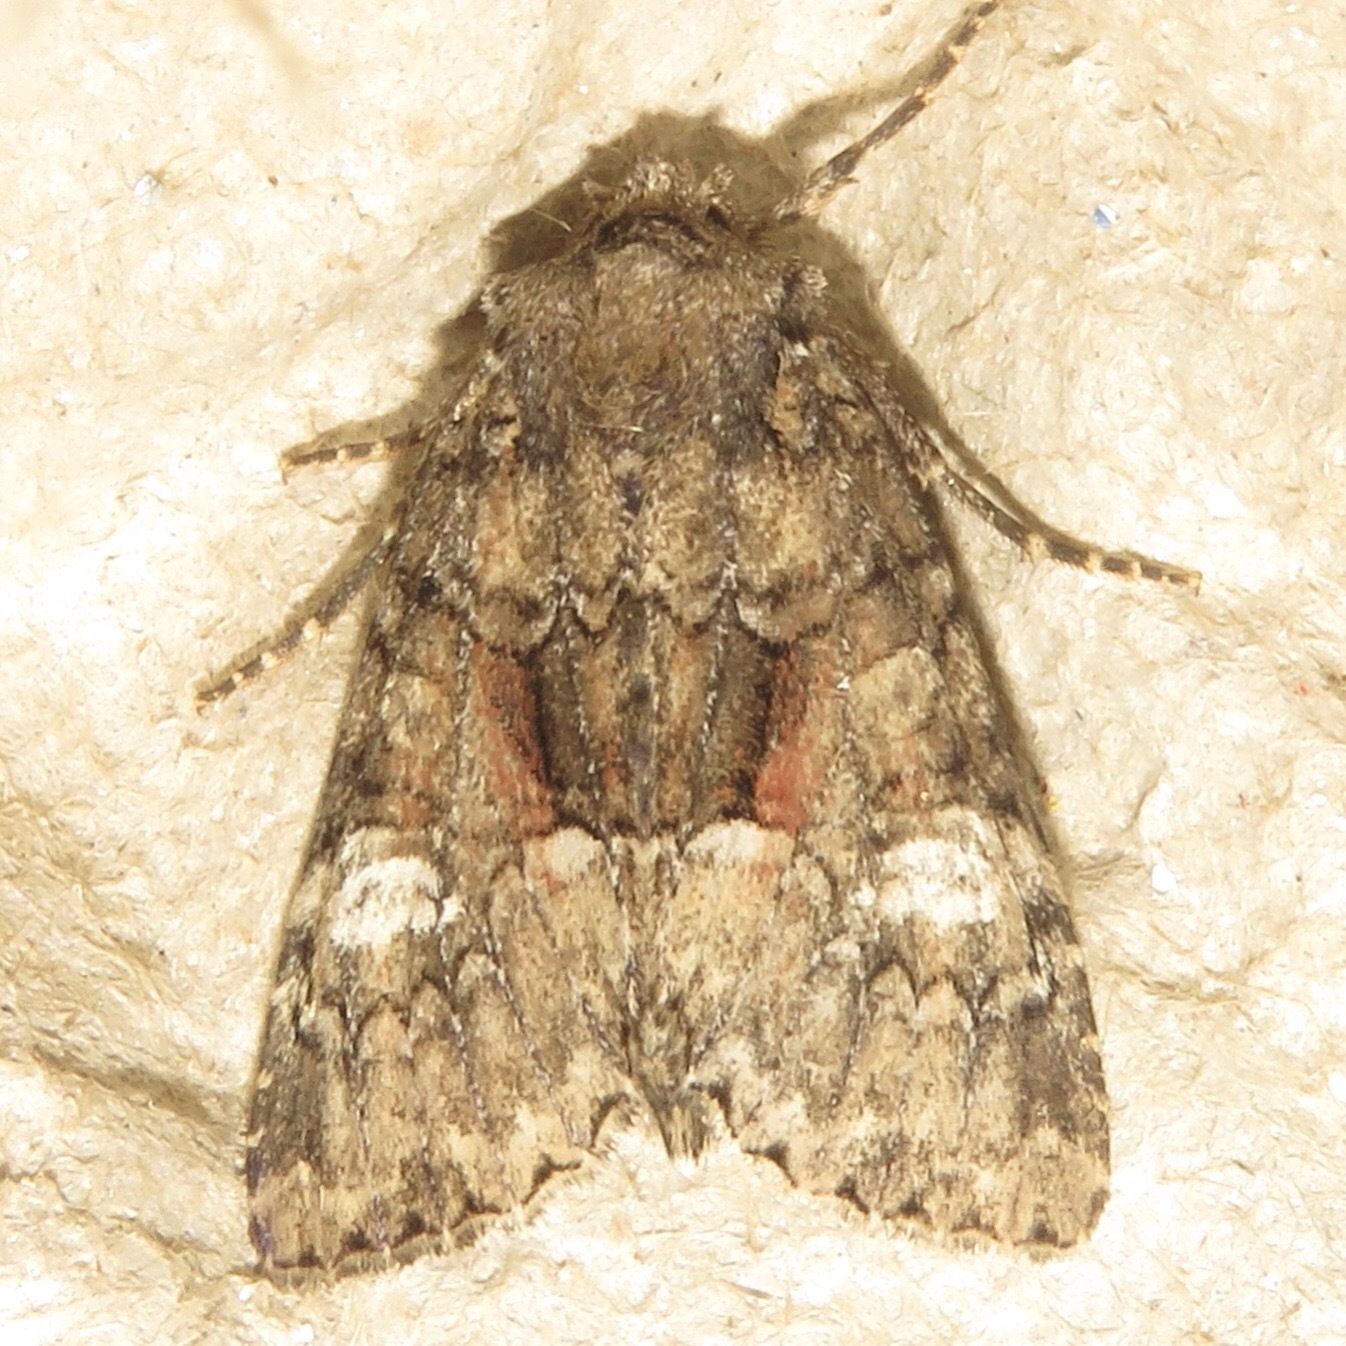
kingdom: Animalia
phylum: Arthropoda
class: Insecta
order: Lepidoptera
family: Noctuidae
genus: Fishia
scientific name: Fishia illocata
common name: Wandering brocade moth
